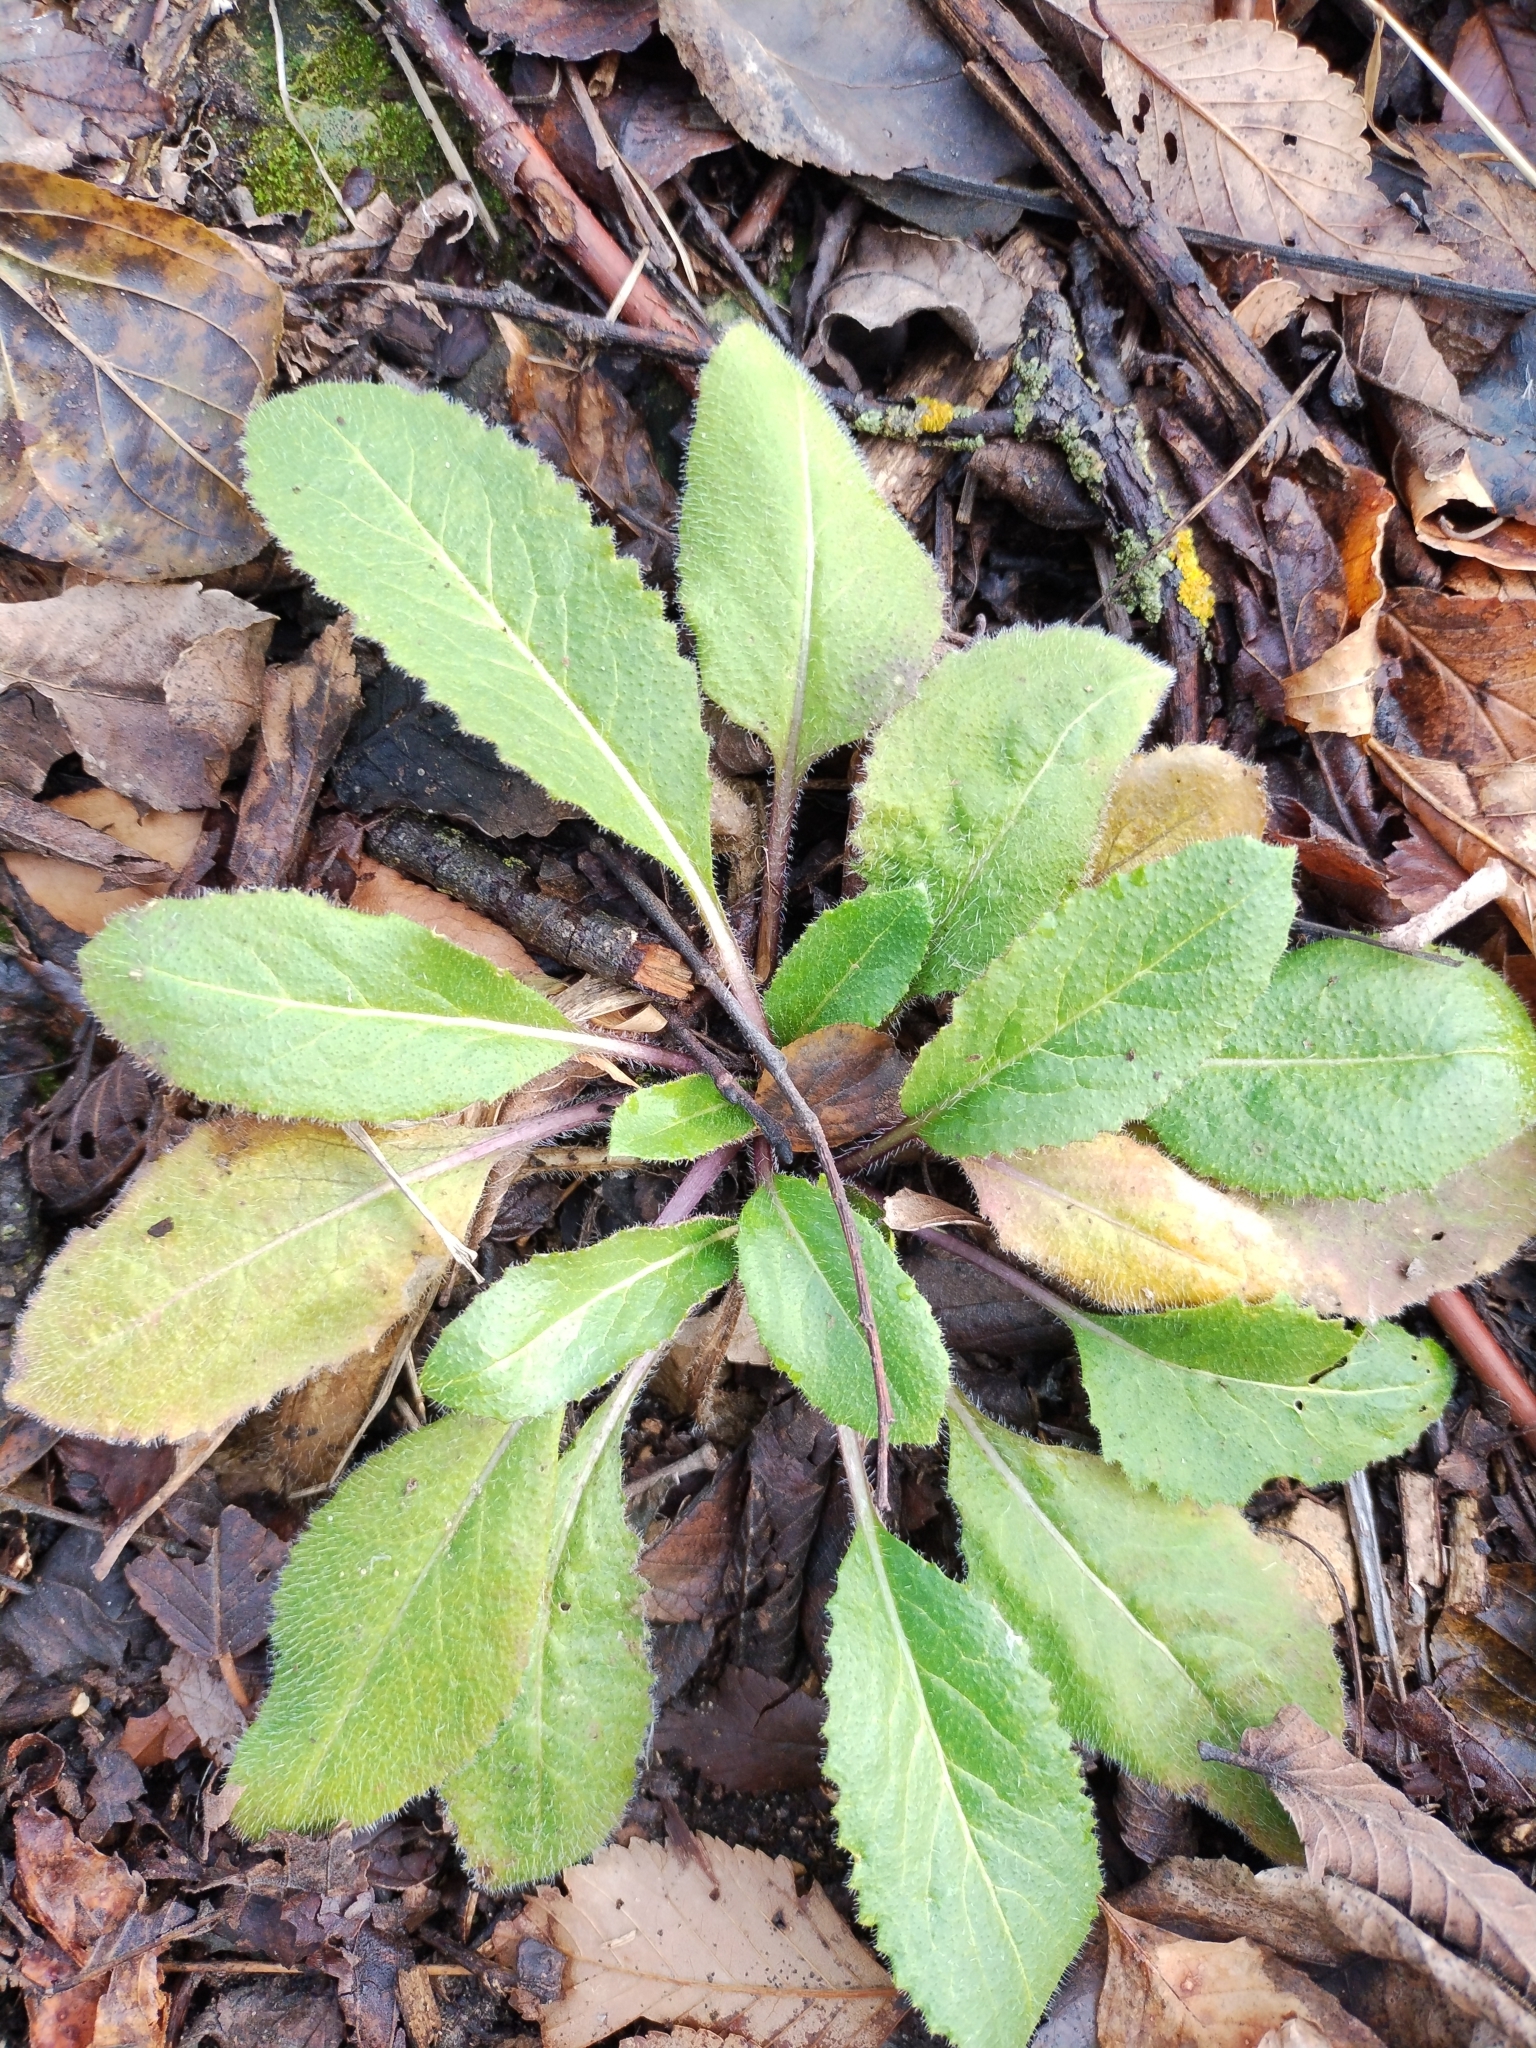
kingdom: Plantae
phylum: Tracheophyta
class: Magnoliopsida
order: Brassicales
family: Brassicaceae
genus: Hesperis
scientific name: Hesperis matronalis
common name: Dame's-violet
